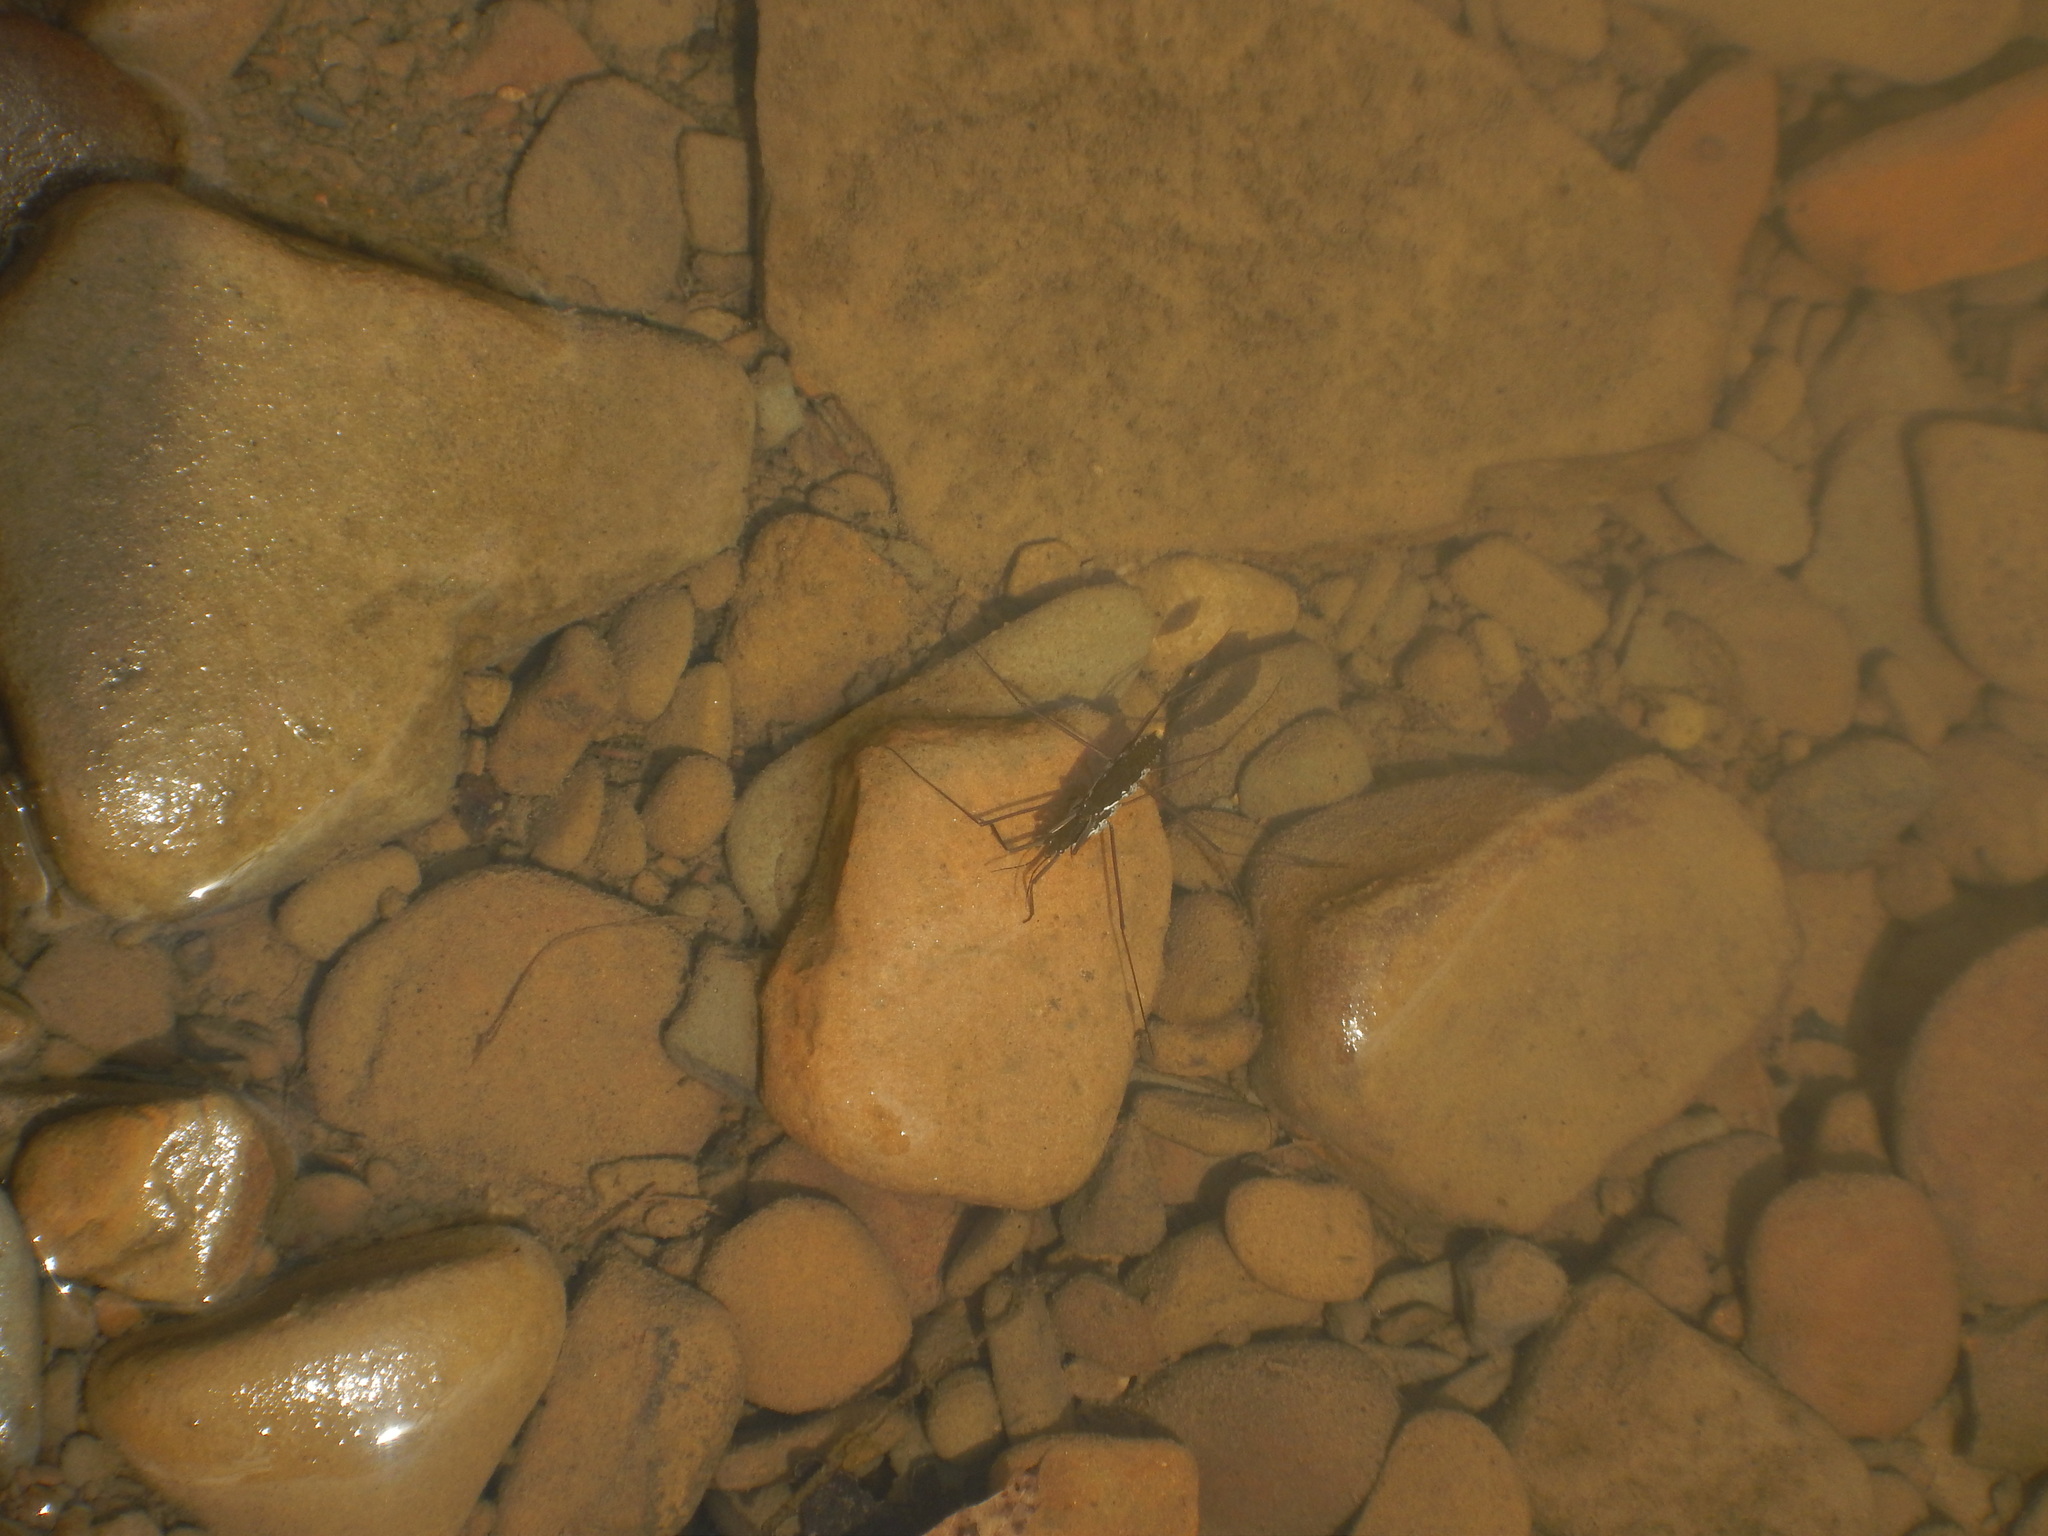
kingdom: Animalia
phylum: Arthropoda
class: Insecta
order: Hemiptera
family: Gerridae
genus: Aquarius
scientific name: Aquarius remigis
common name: Common water strider
